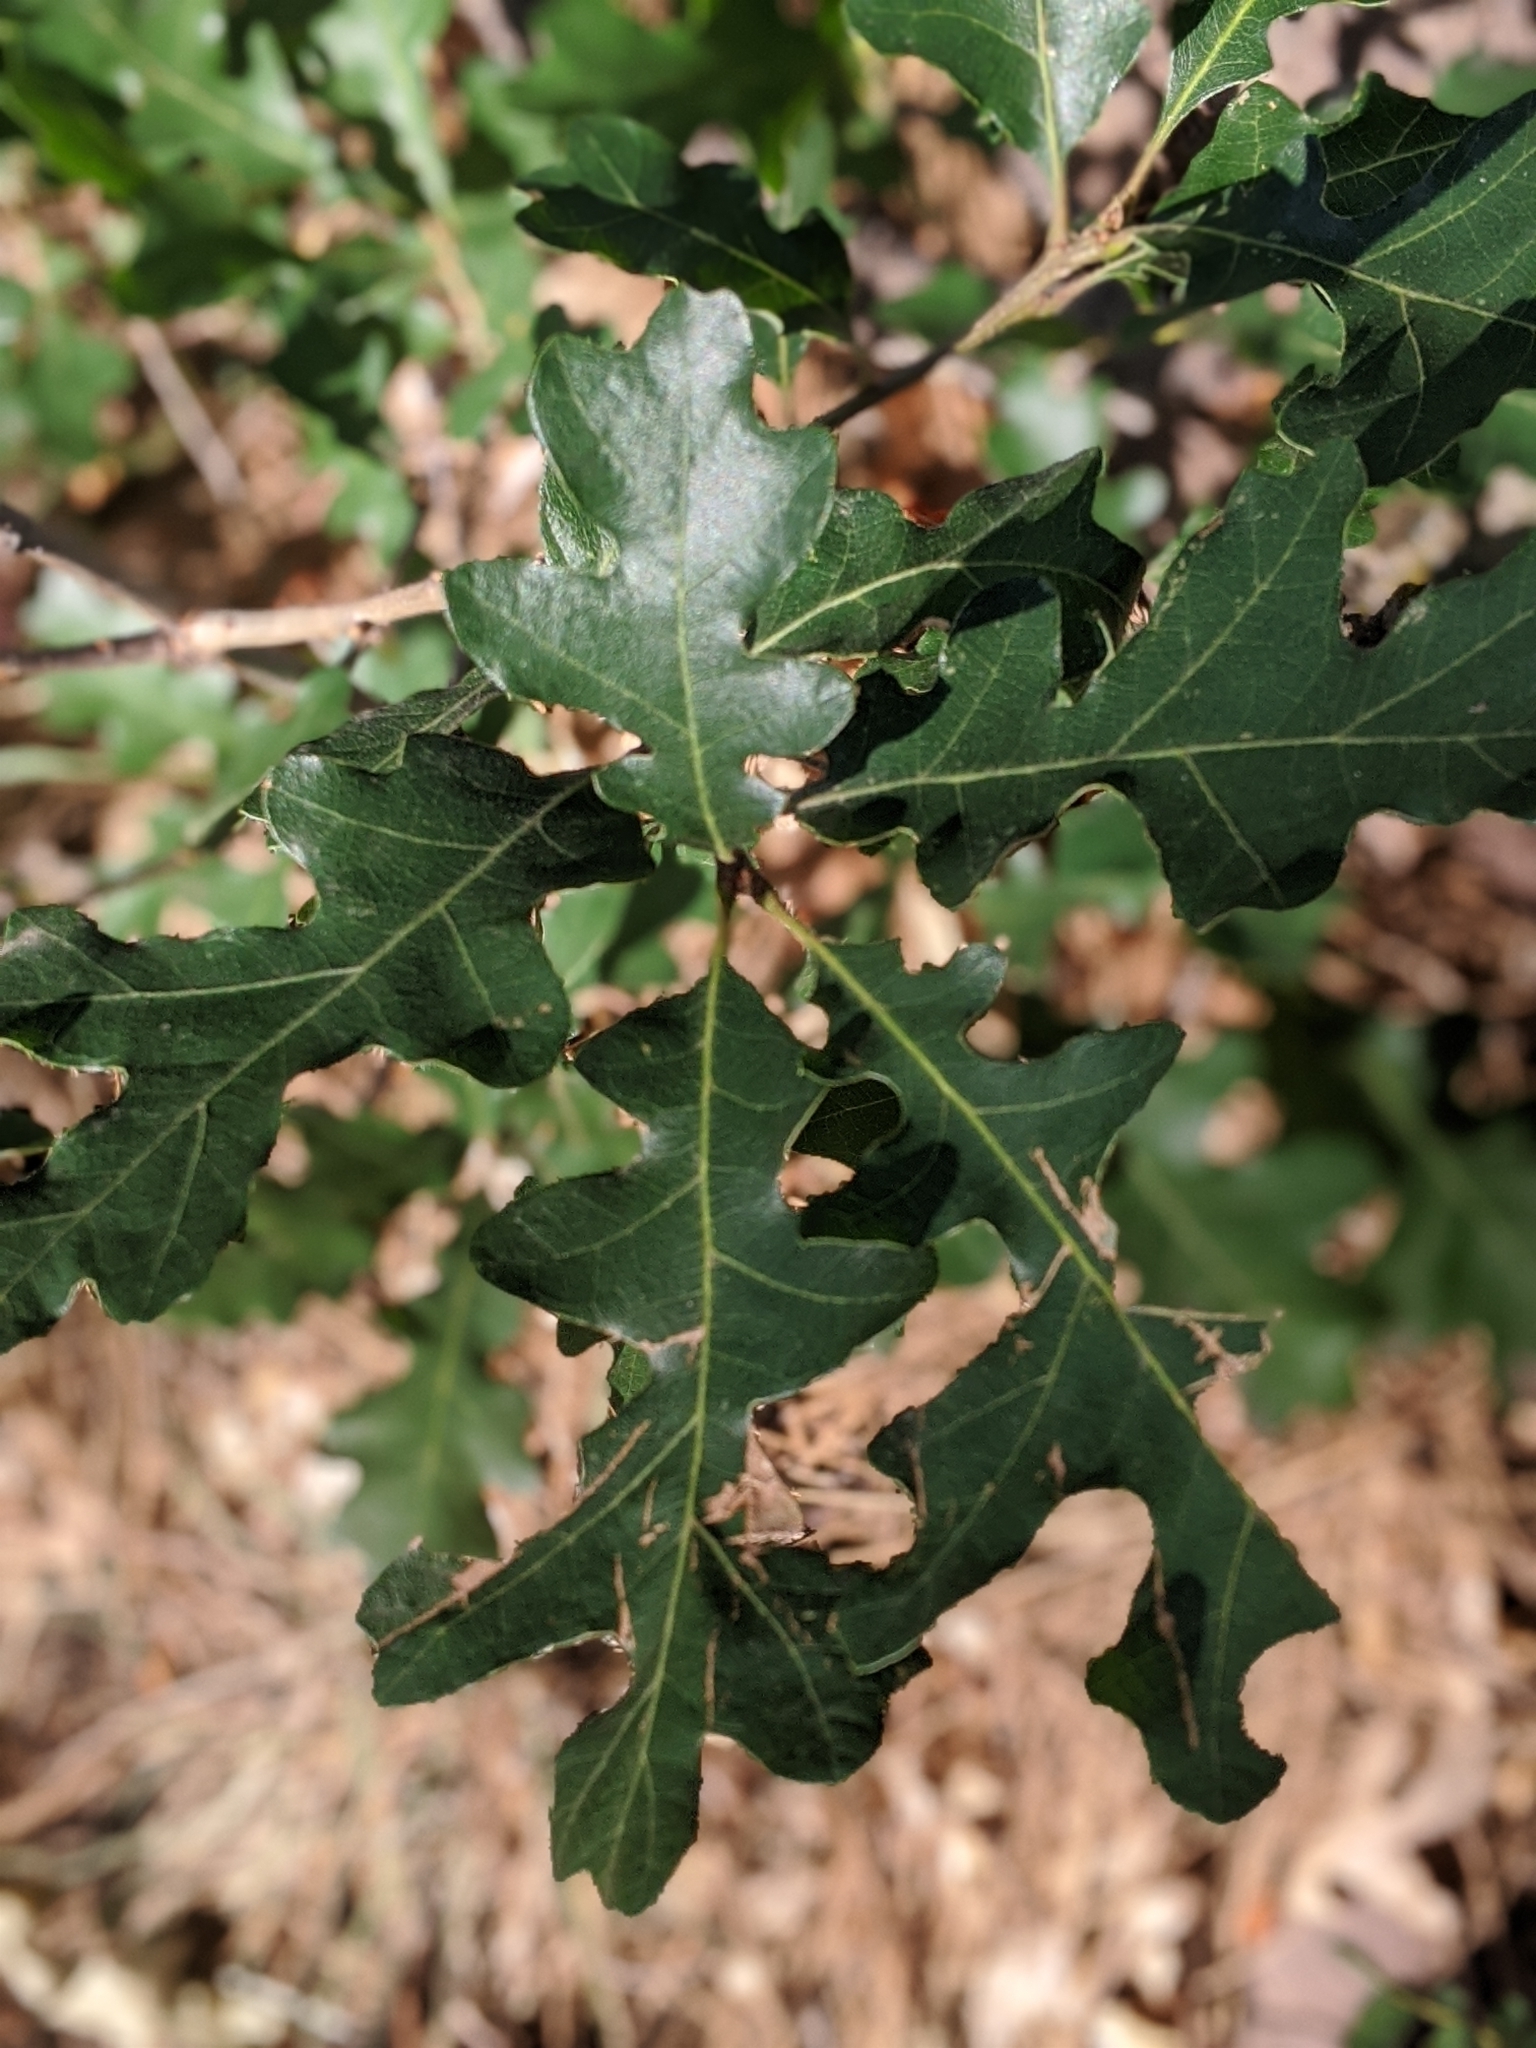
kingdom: Animalia
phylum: Arthropoda
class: Insecta
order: Hymenoptera
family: Cynipidae
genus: Disholcaspis
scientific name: Disholcaspis
